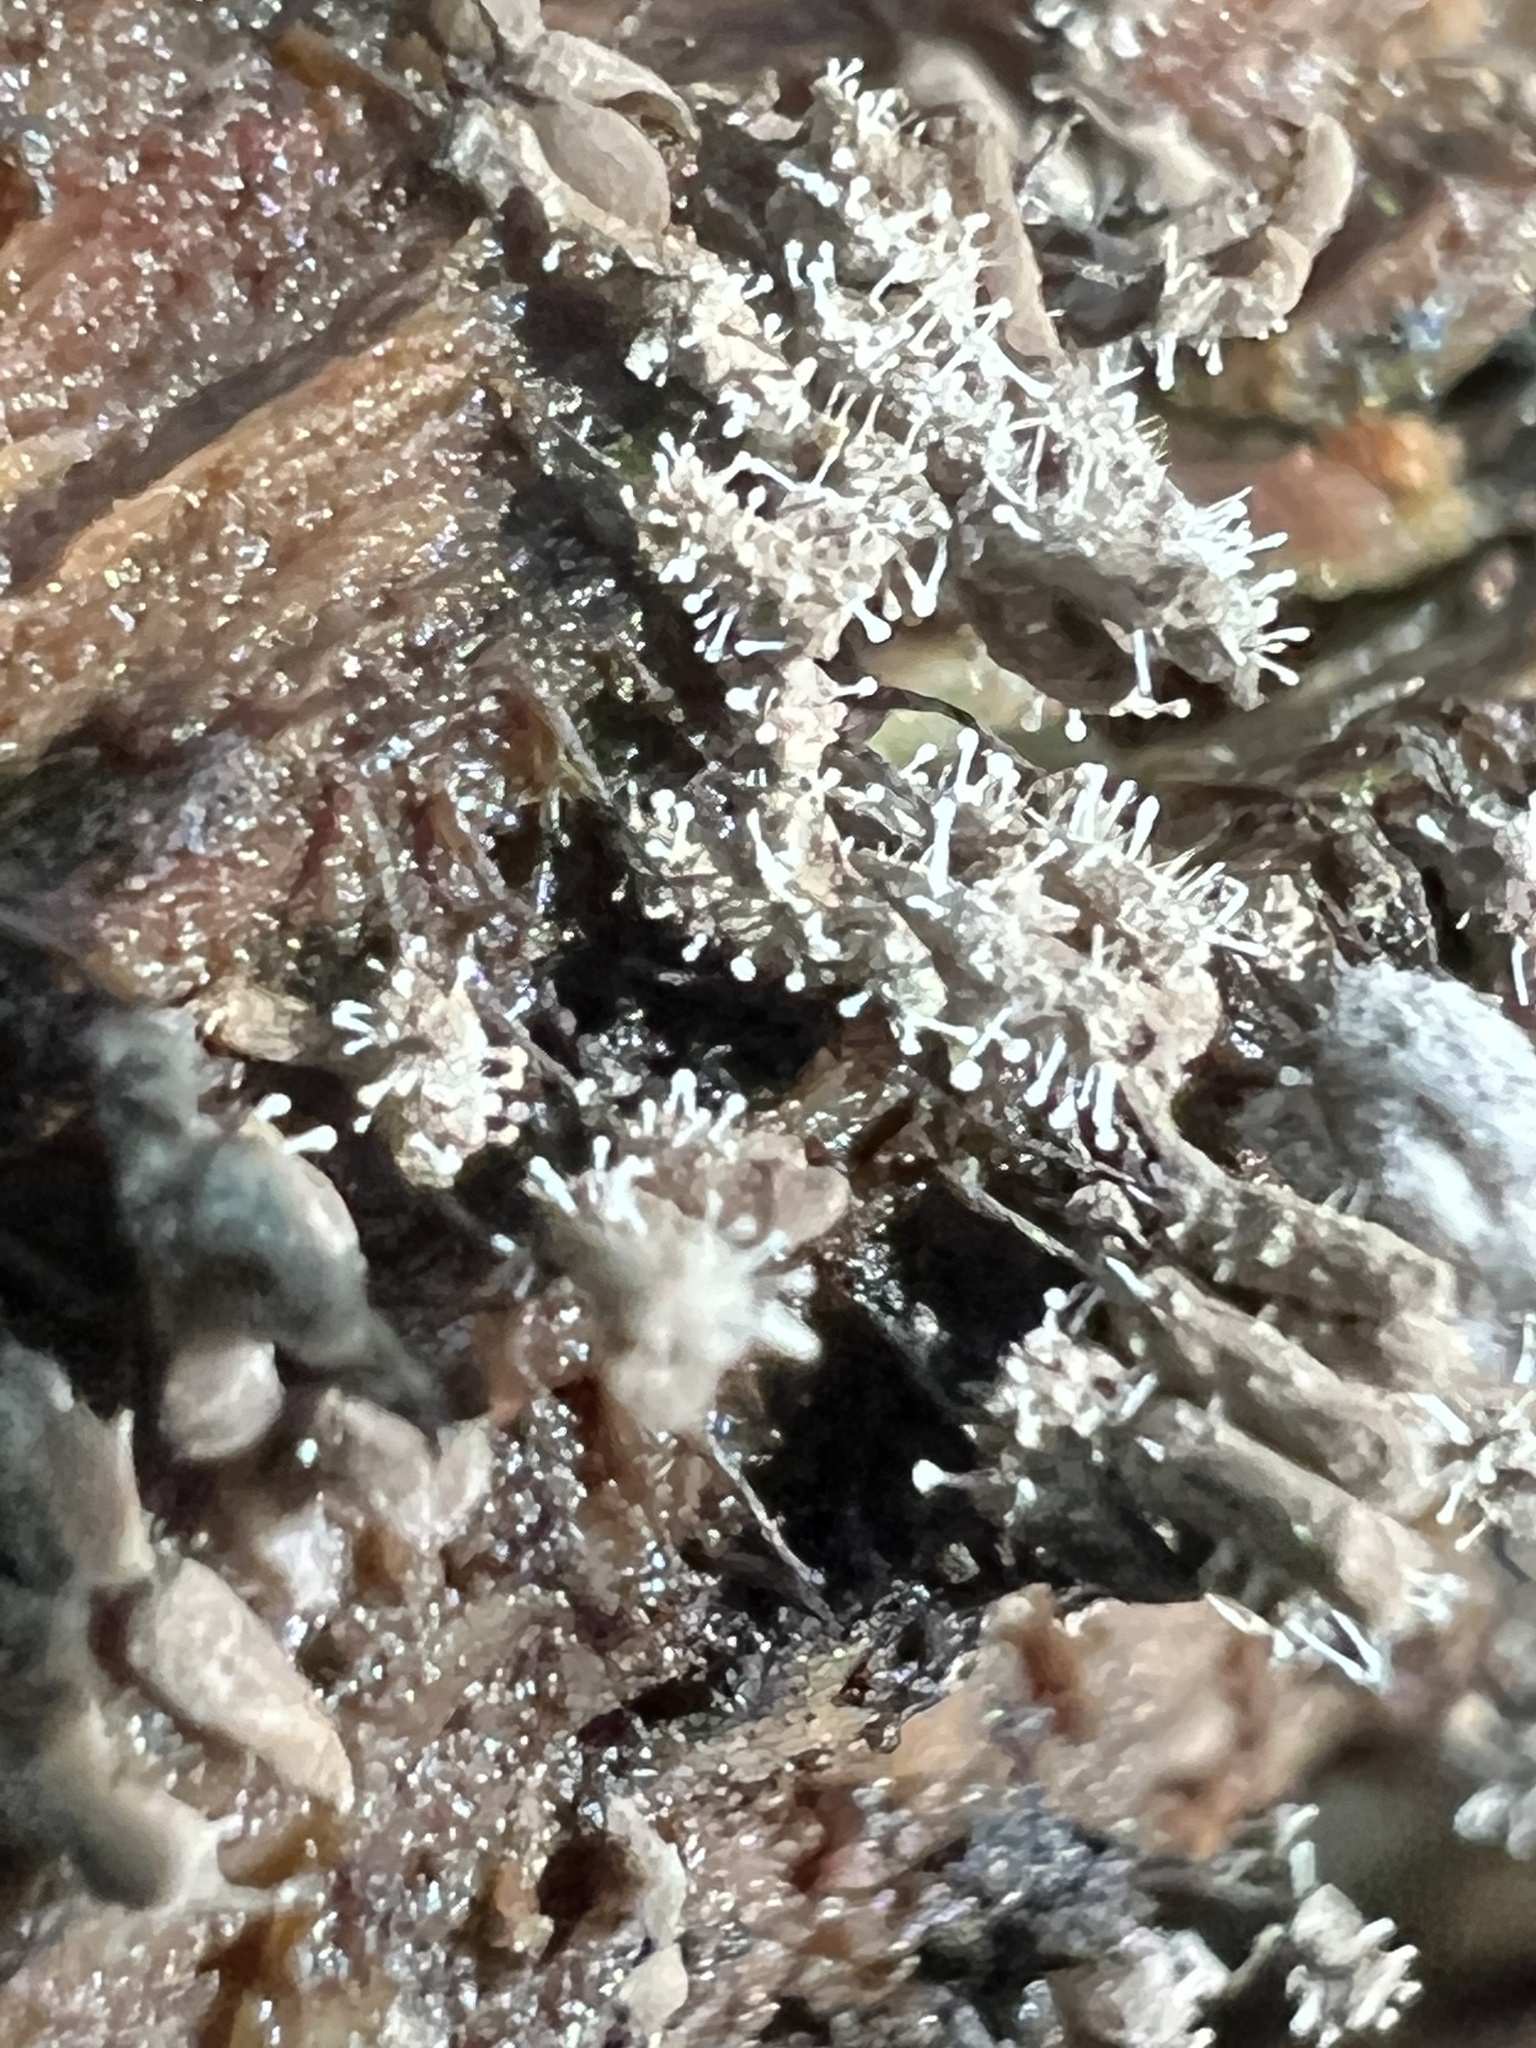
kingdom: Fungi
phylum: Ascomycota
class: Sordariomycetes
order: Hypocreales
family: Ophiocordycipitaceae
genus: Polycephalomyces
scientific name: Polycephalomyces tomentosus
